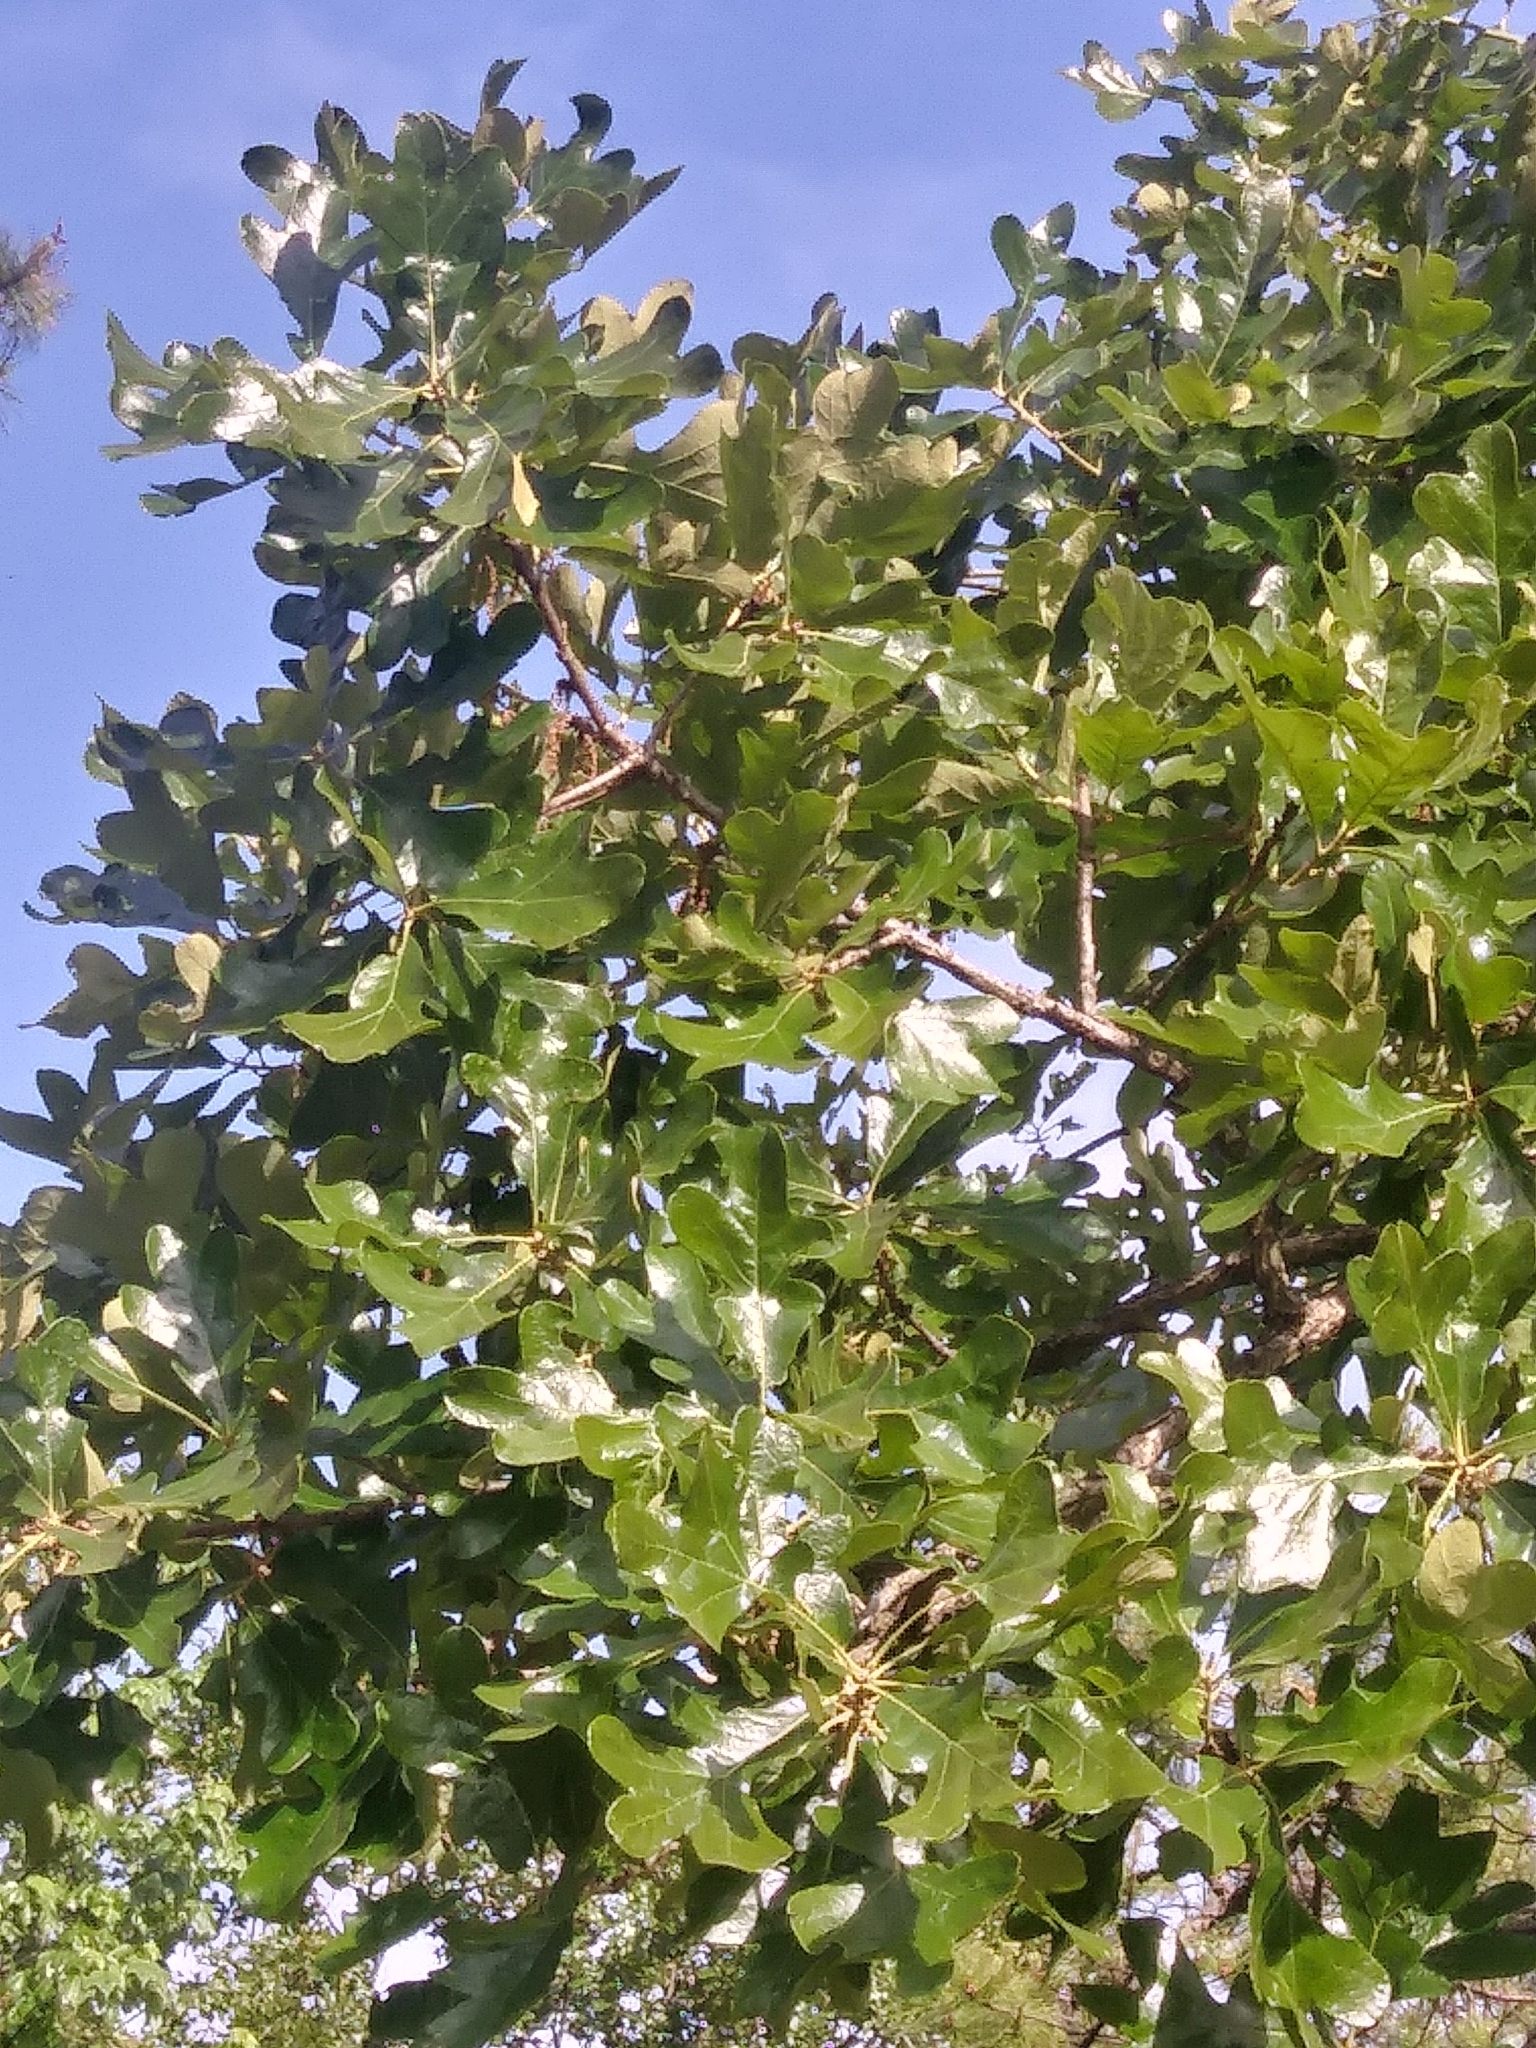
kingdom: Plantae
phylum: Tracheophyta
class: Magnoliopsida
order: Fagales
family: Fagaceae
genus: Quercus
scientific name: Quercus stellata
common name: Post oak
